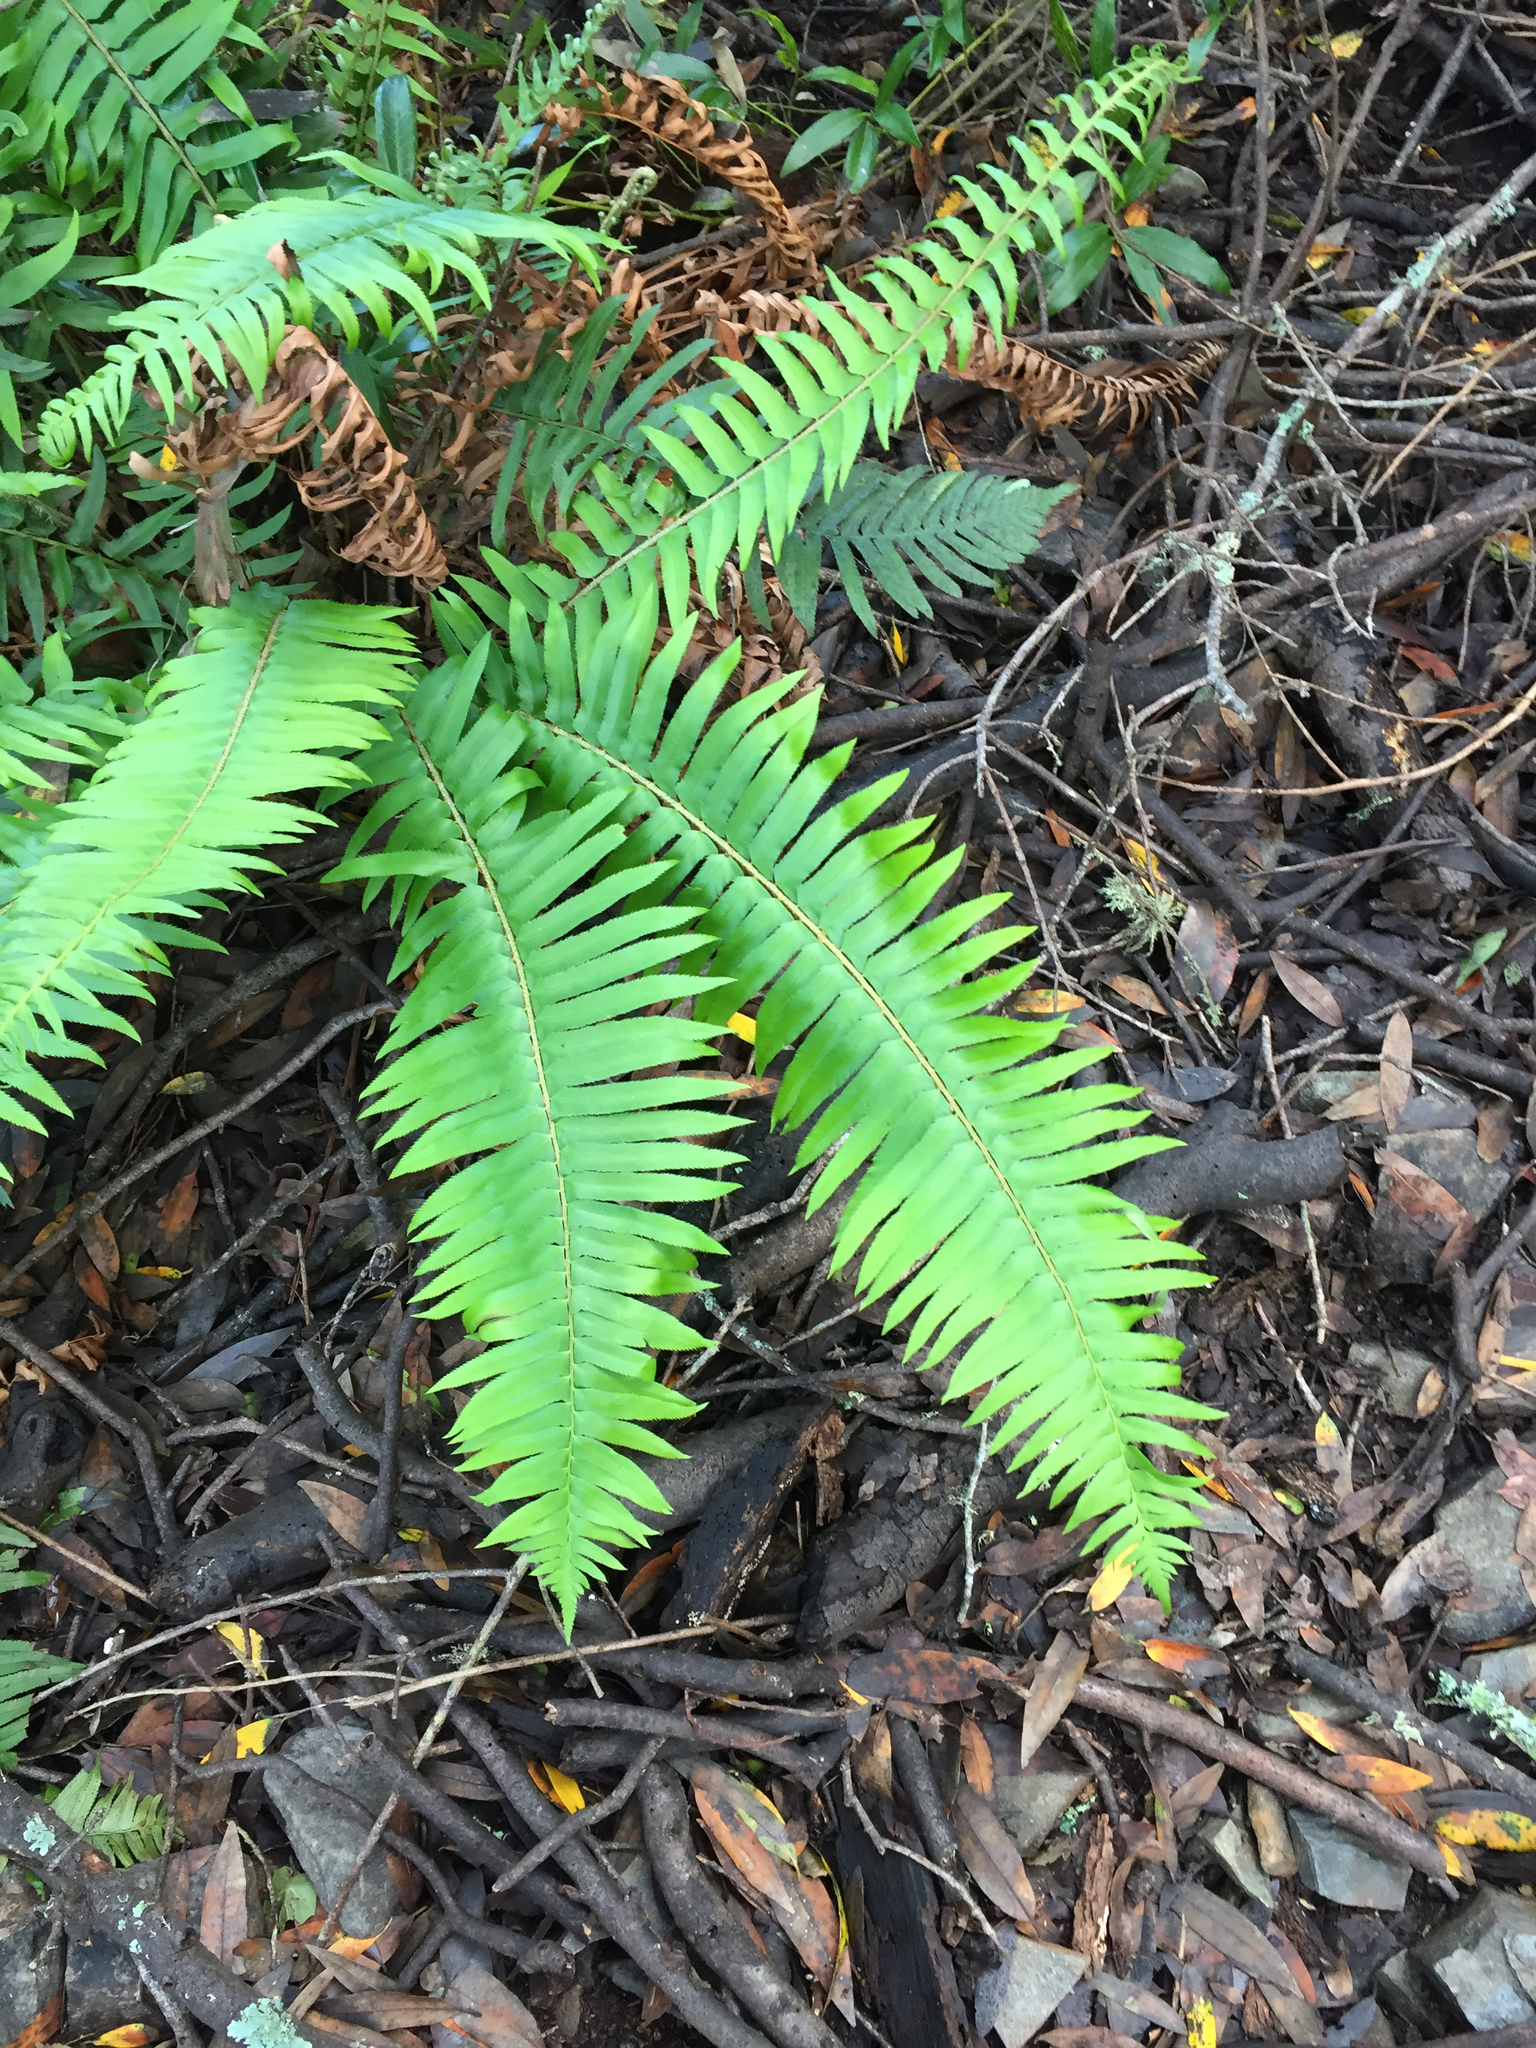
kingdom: Plantae
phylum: Tracheophyta
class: Polypodiopsida
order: Polypodiales
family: Dryopteridaceae
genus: Polystichum
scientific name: Polystichum munitum
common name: Western sword-fern
